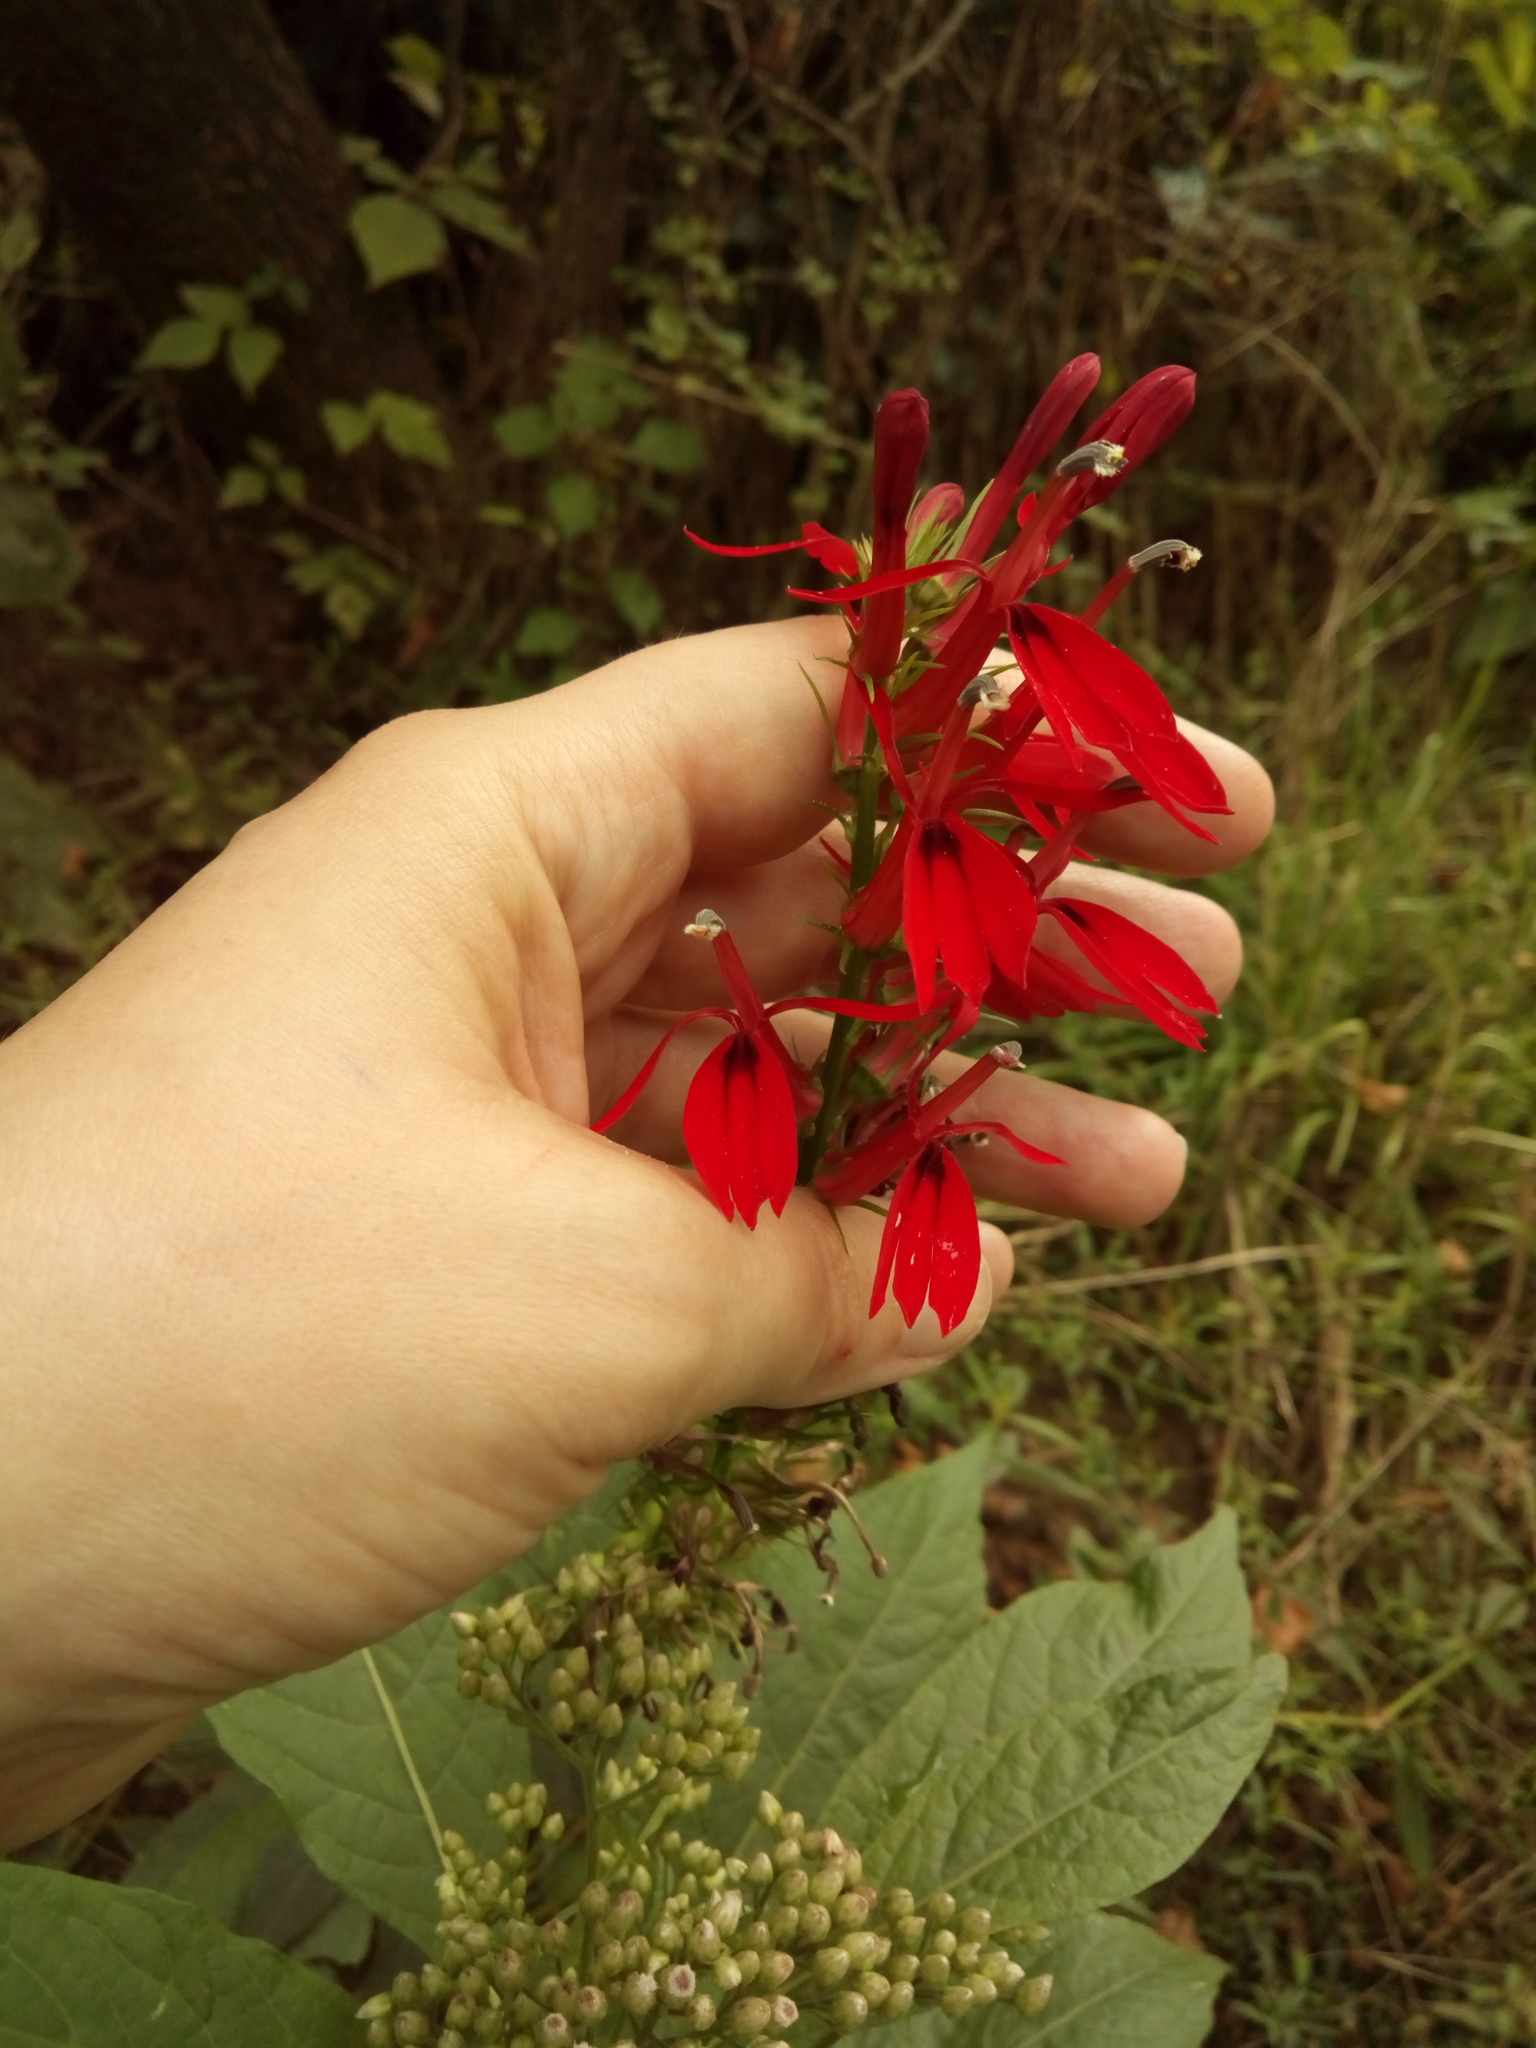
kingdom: Plantae
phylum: Tracheophyta
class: Magnoliopsida
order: Asterales
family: Campanulaceae
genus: Lobelia
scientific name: Lobelia cardinalis
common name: Cardinal flower
